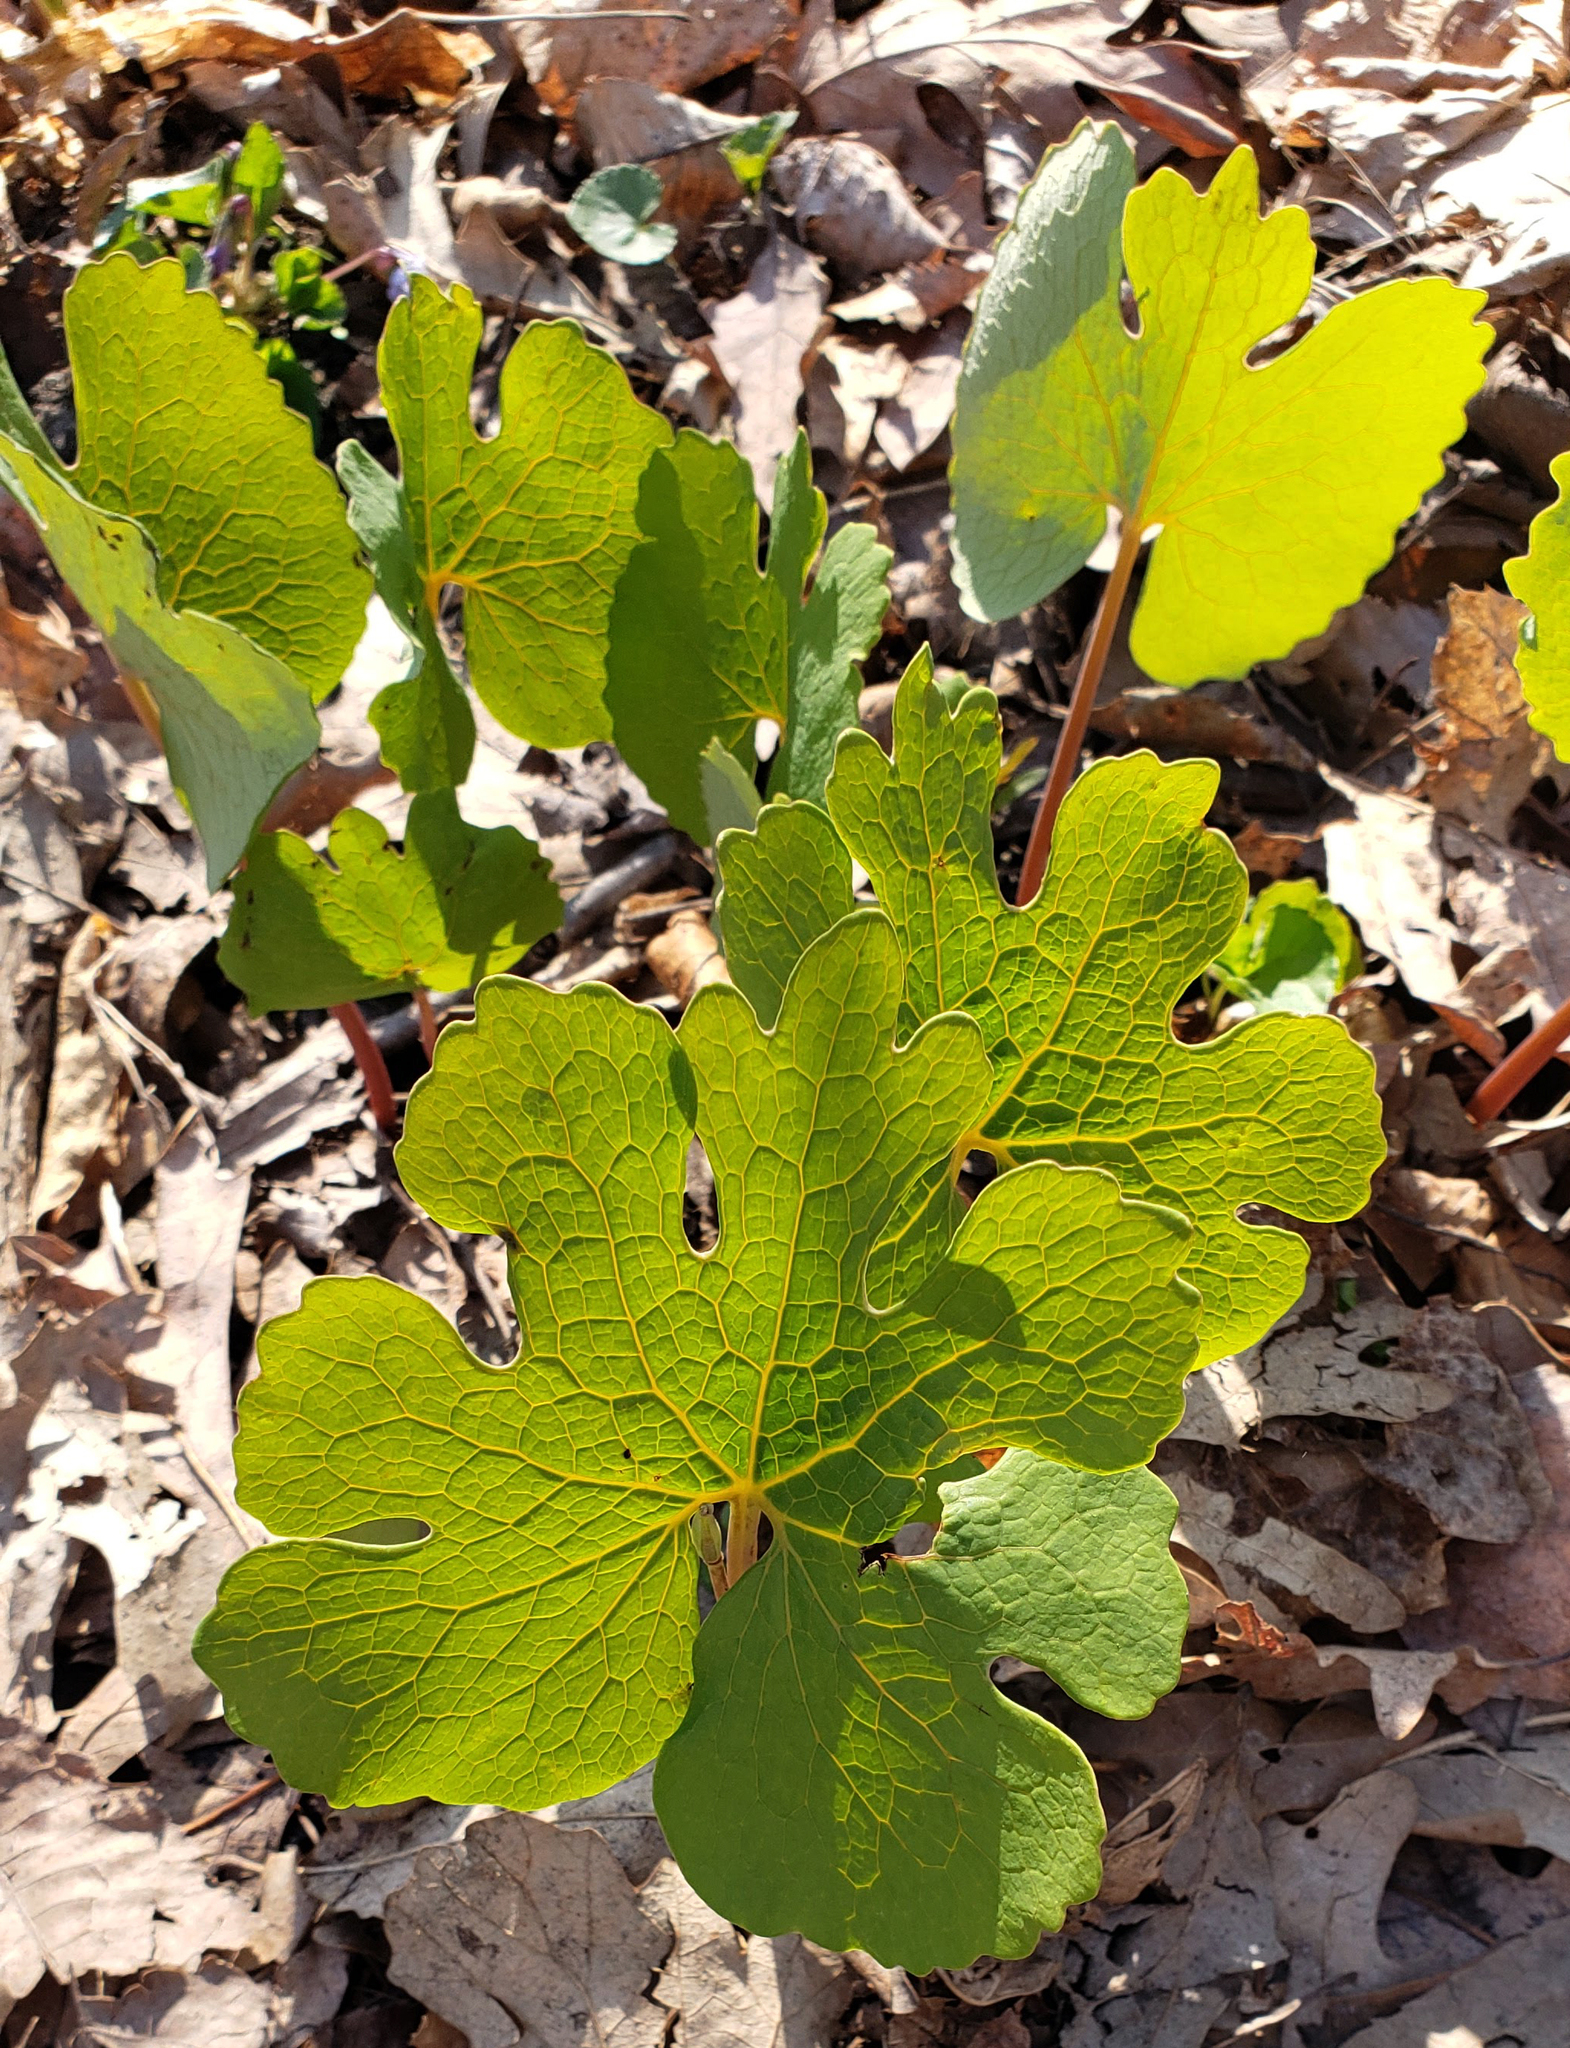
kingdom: Plantae
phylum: Tracheophyta
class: Magnoliopsida
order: Ranunculales
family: Papaveraceae
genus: Sanguinaria
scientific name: Sanguinaria canadensis
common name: Bloodroot
